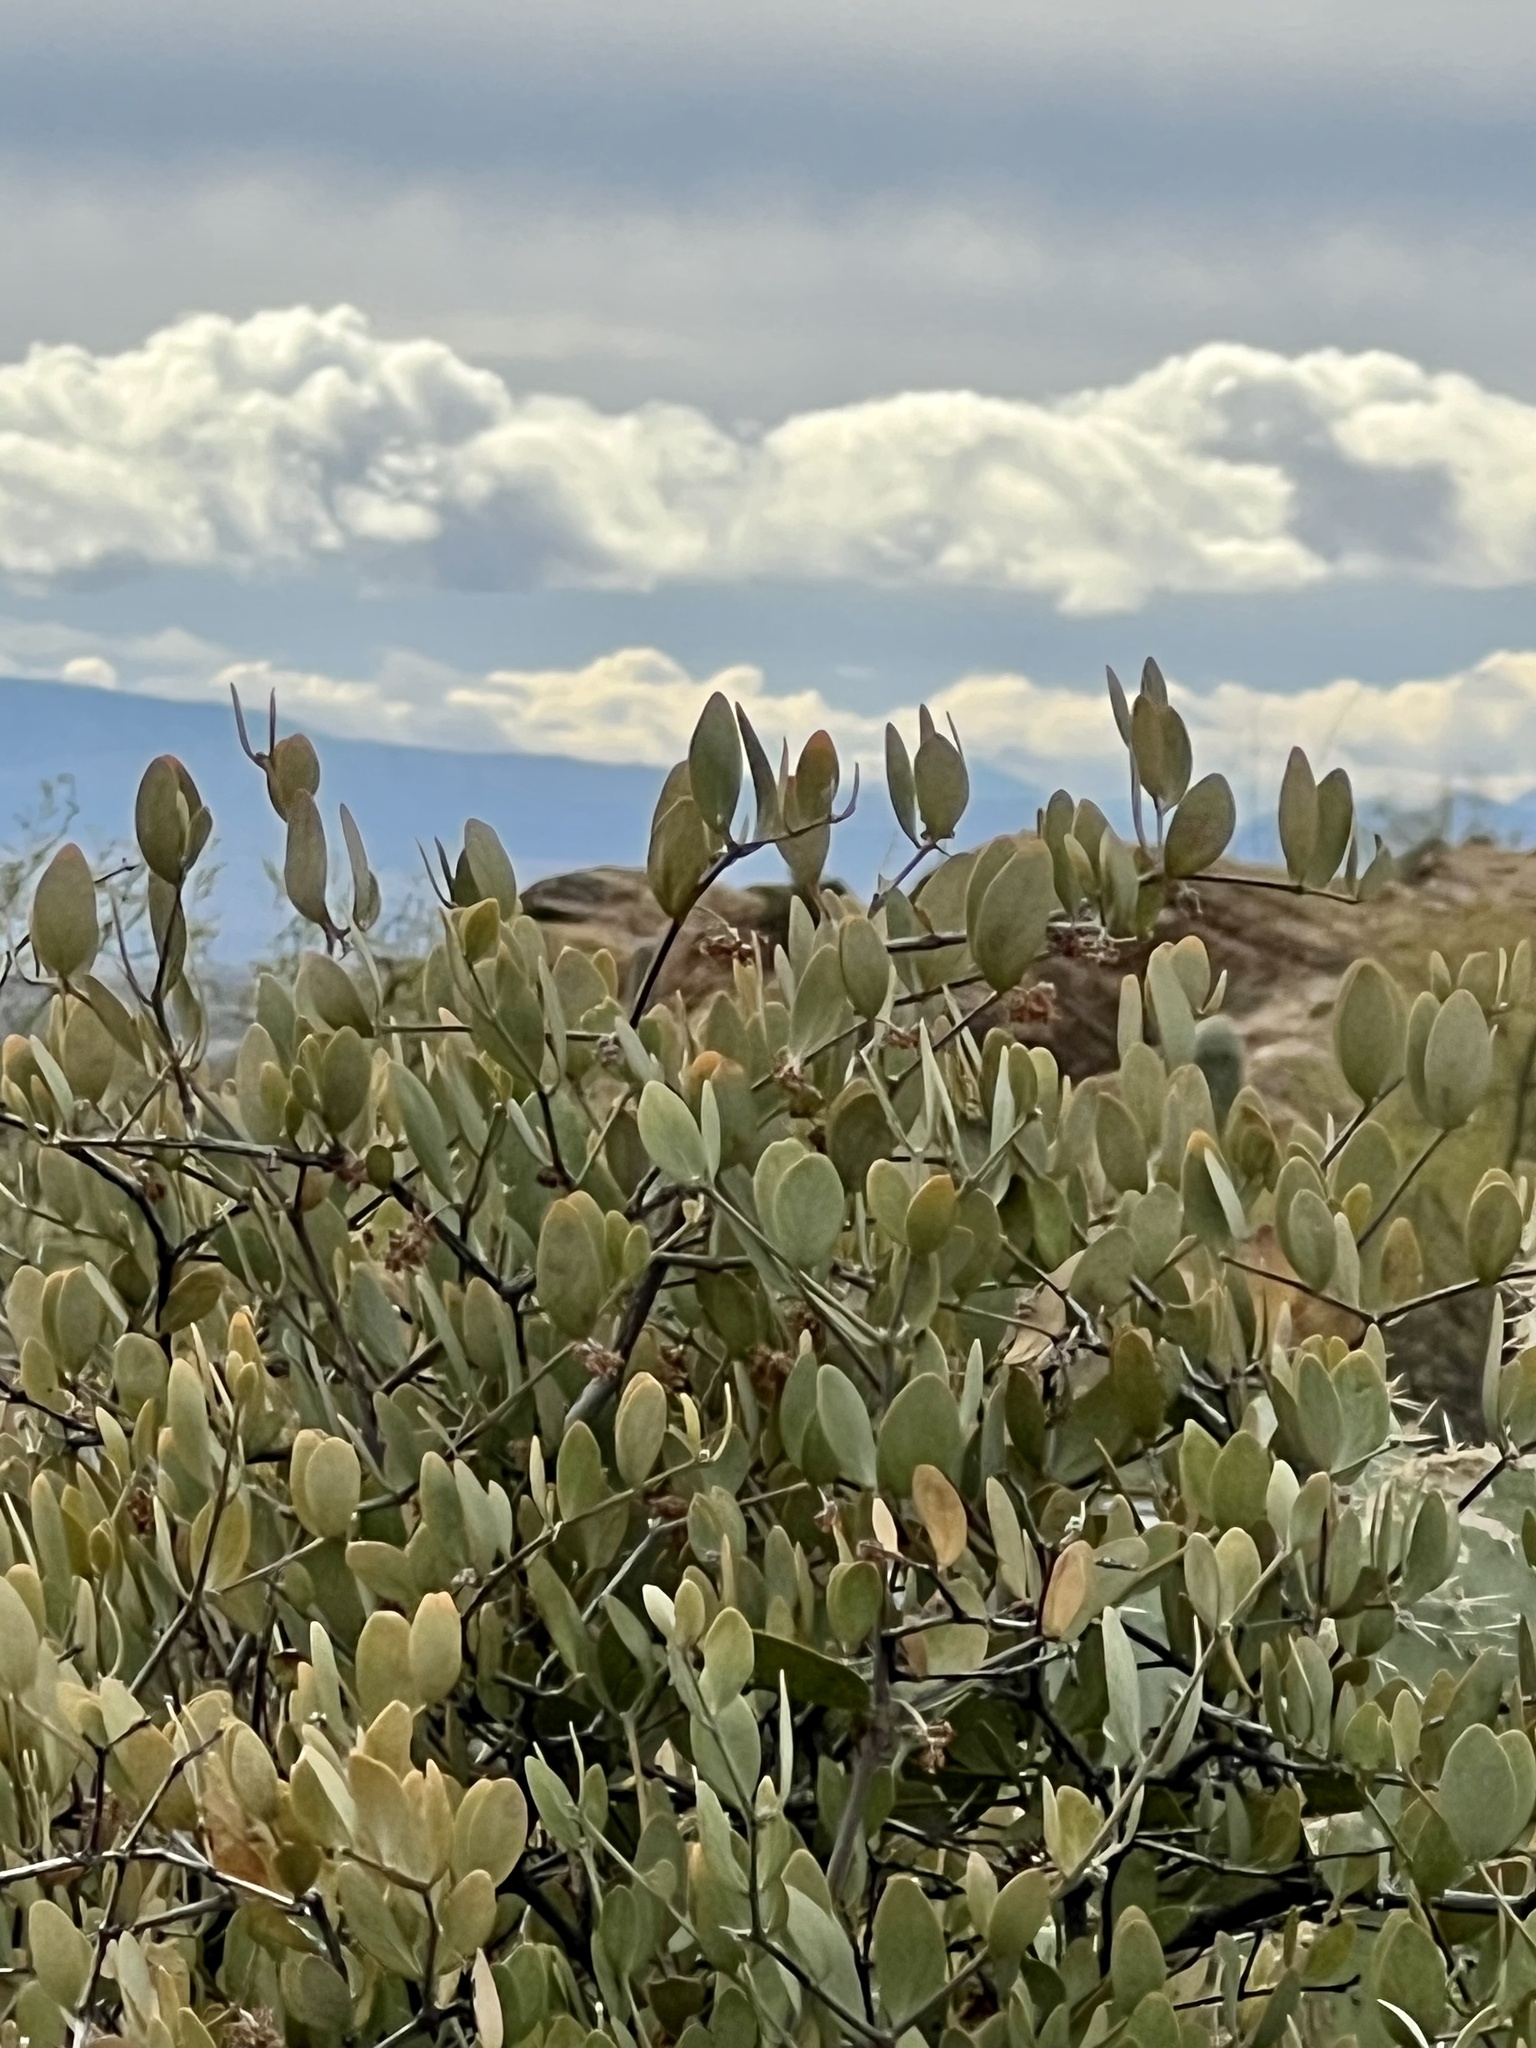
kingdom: Plantae
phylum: Tracheophyta
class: Magnoliopsida
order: Caryophyllales
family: Simmondsiaceae
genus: Simmondsia
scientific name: Simmondsia chinensis
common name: Jojoba
